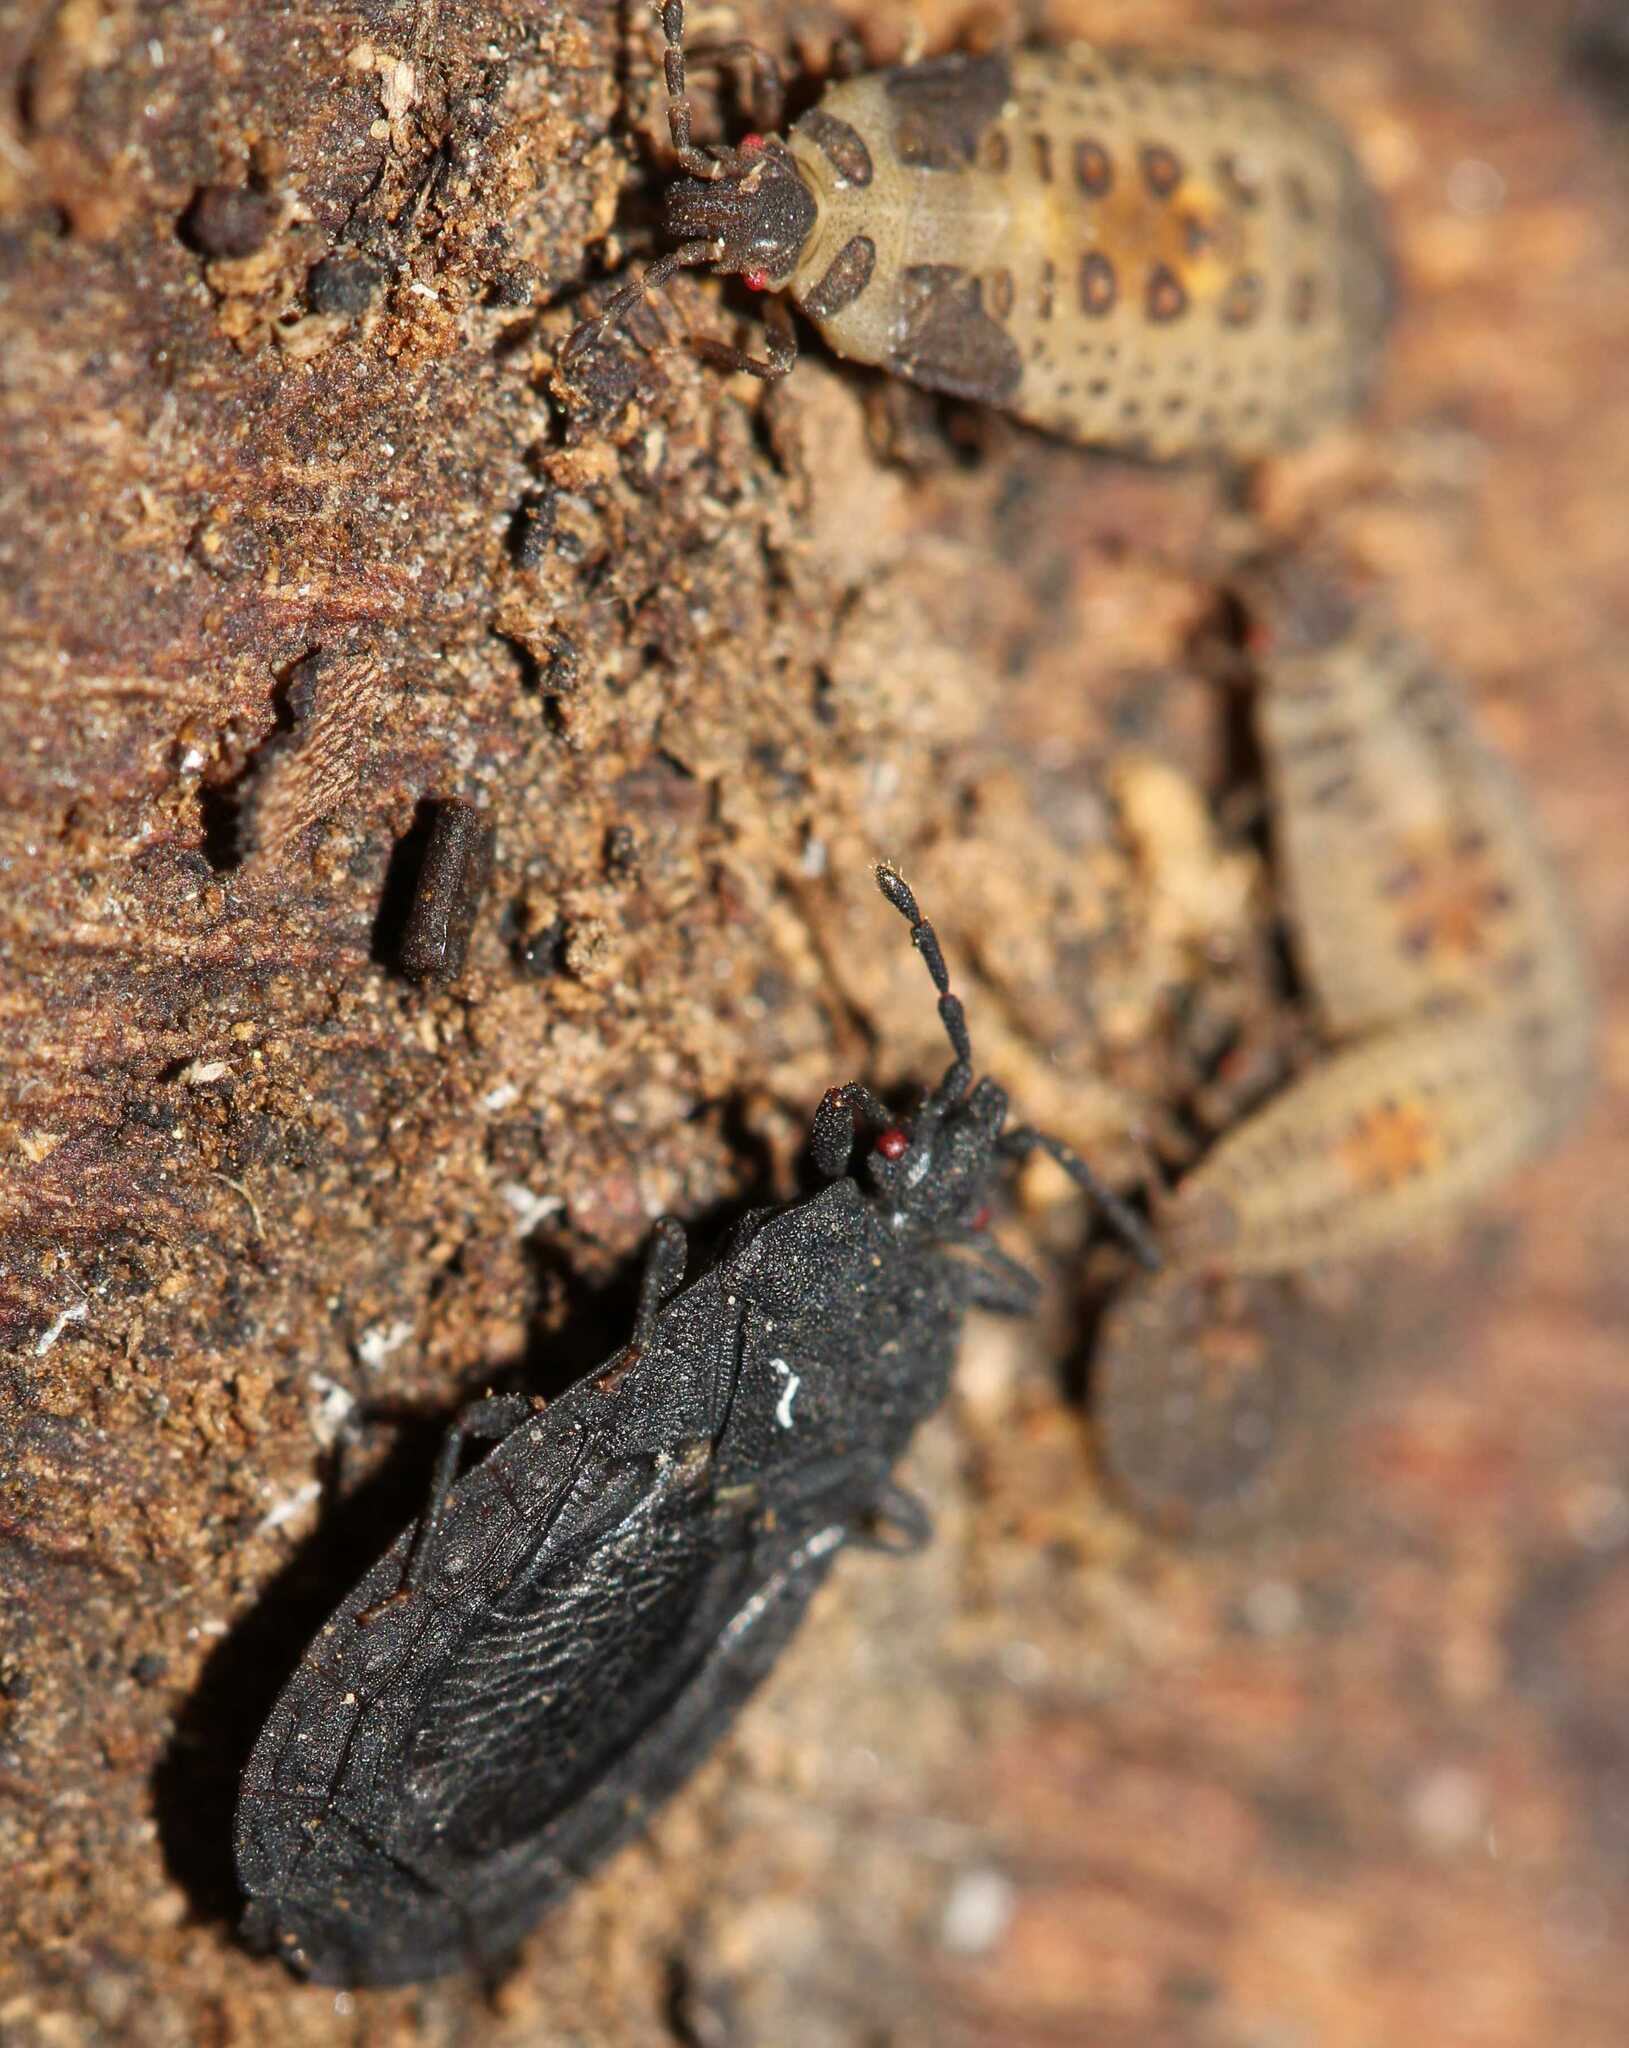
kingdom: Animalia
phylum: Arthropoda
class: Insecta
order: Hemiptera
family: Aradidae
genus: Neuroctenus
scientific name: Neuroctenus
